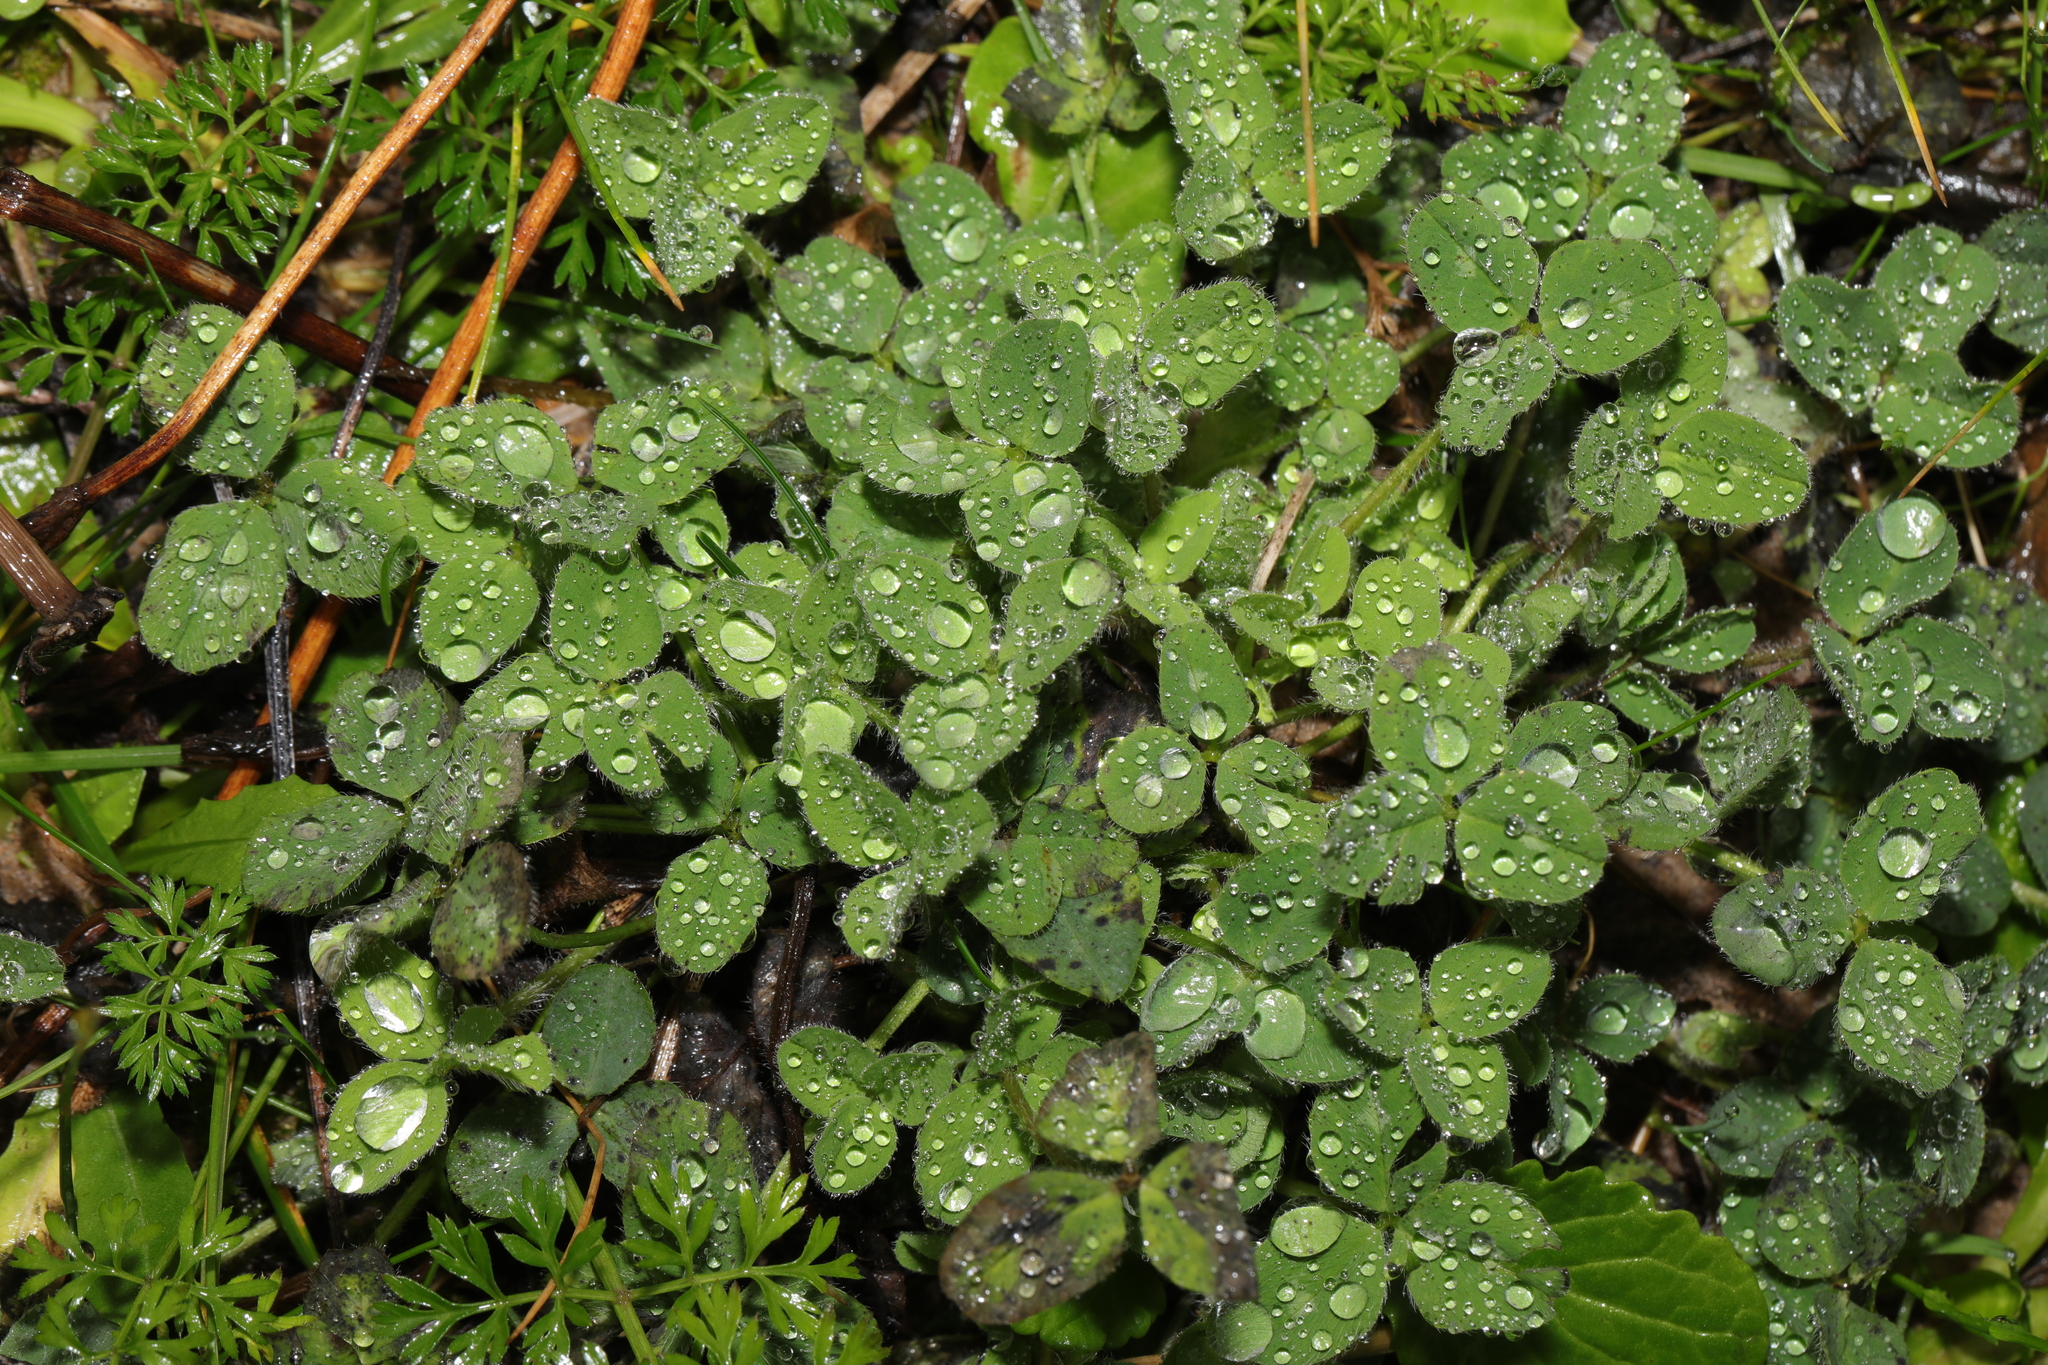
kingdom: Plantae
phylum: Tracheophyta
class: Magnoliopsida
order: Fabales
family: Fabaceae
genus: Trifolium
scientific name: Trifolium pratense
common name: Red clover
